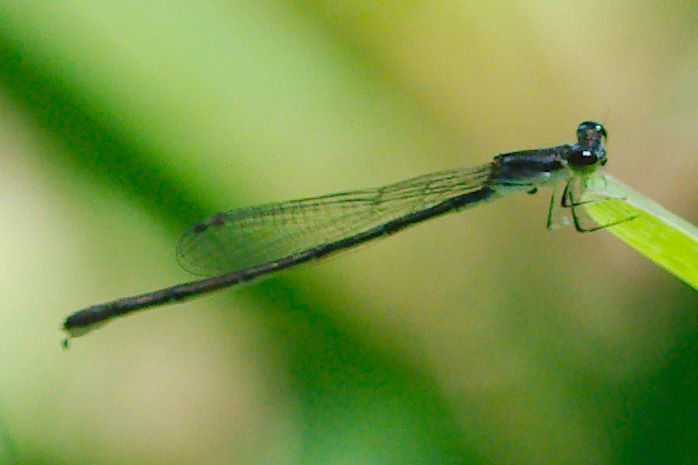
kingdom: Animalia
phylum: Arthropoda
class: Insecta
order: Odonata
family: Coenagrionidae
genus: Ischnura
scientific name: Ischnura posita
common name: Fragile forktail
